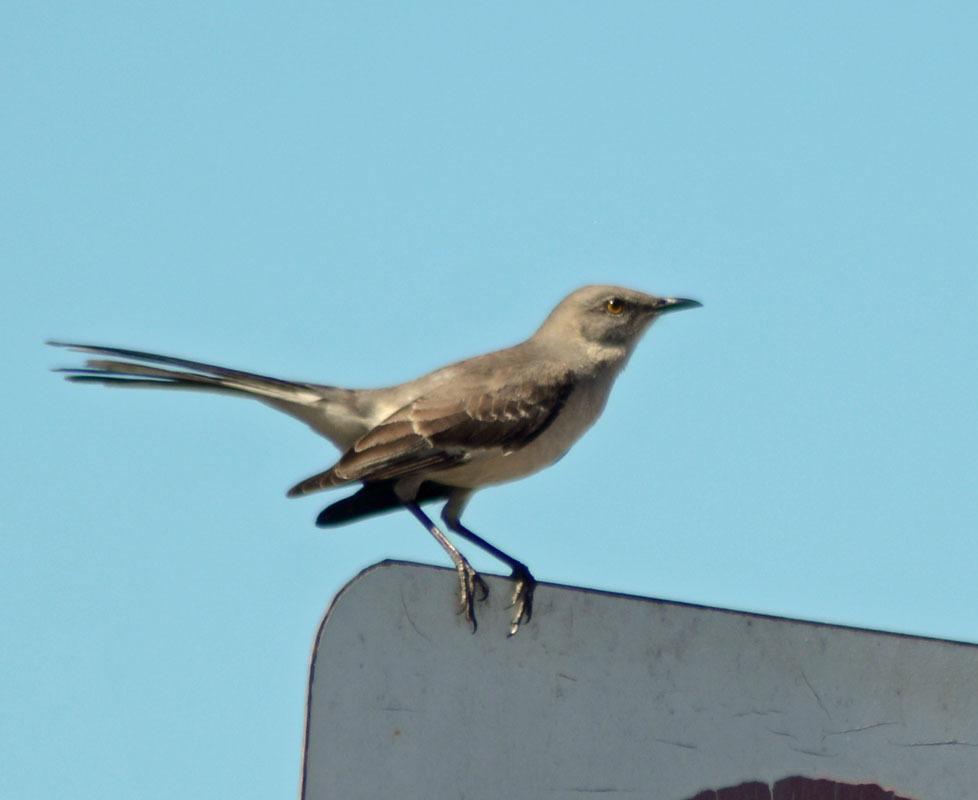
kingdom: Animalia
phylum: Chordata
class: Aves
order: Passeriformes
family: Mimidae
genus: Mimus
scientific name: Mimus polyglottos
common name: Northern mockingbird
